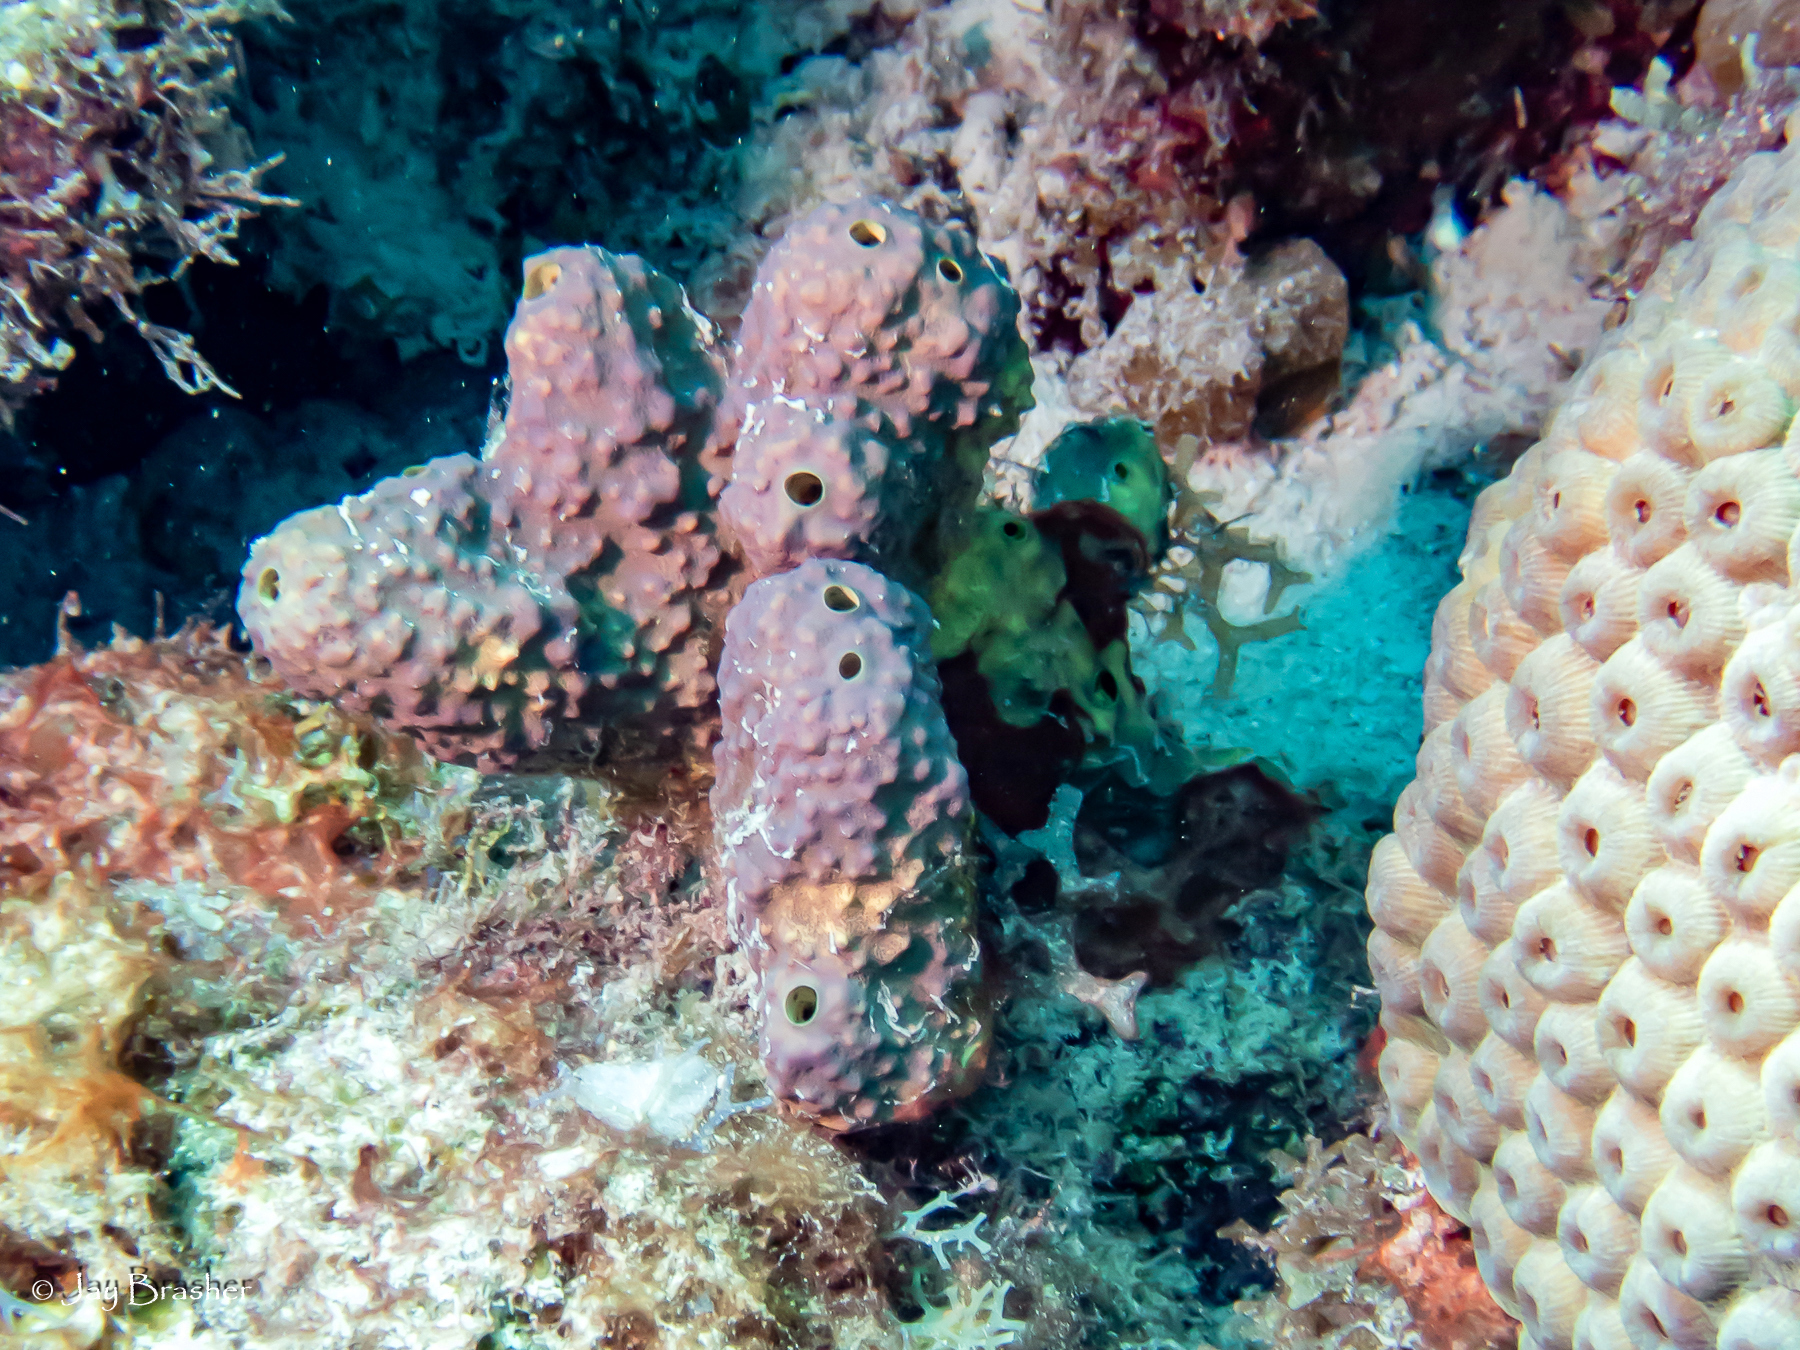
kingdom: Animalia
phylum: Porifera
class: Demospongiae
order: Verongiida
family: Aplysinidae
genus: Aiolochroia
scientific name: Aiolochroia crassa
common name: Branching tube sponge
